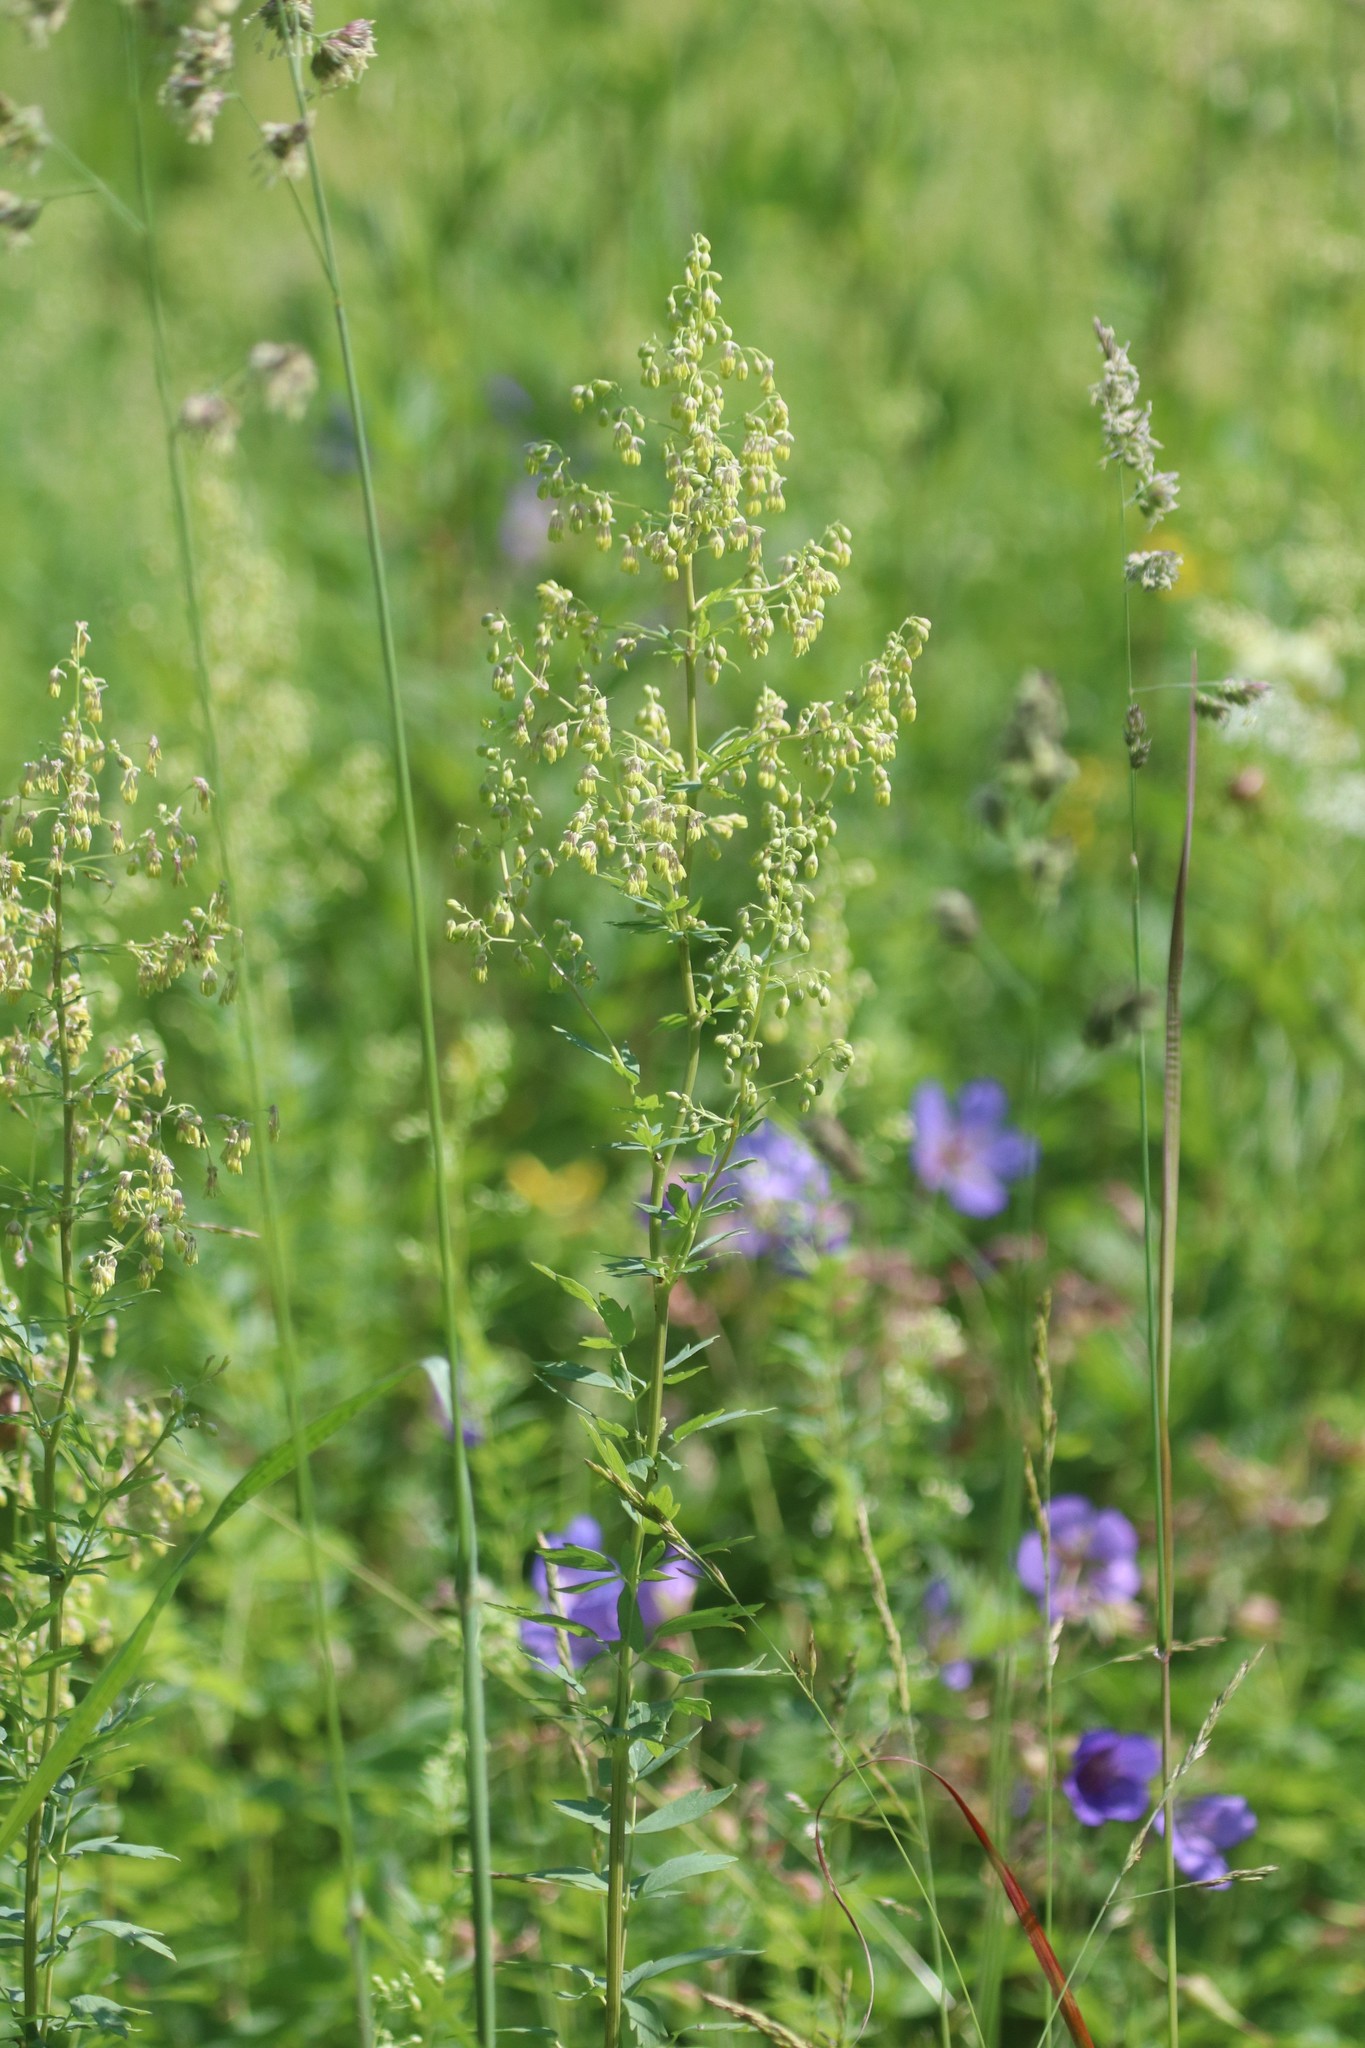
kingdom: Plantae
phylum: Tracheophyta
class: Magnoliopsida
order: Ranunculales
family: Ranunculaceae
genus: Thalictrum
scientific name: Thalictrum simplex
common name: Small meadow-rue
